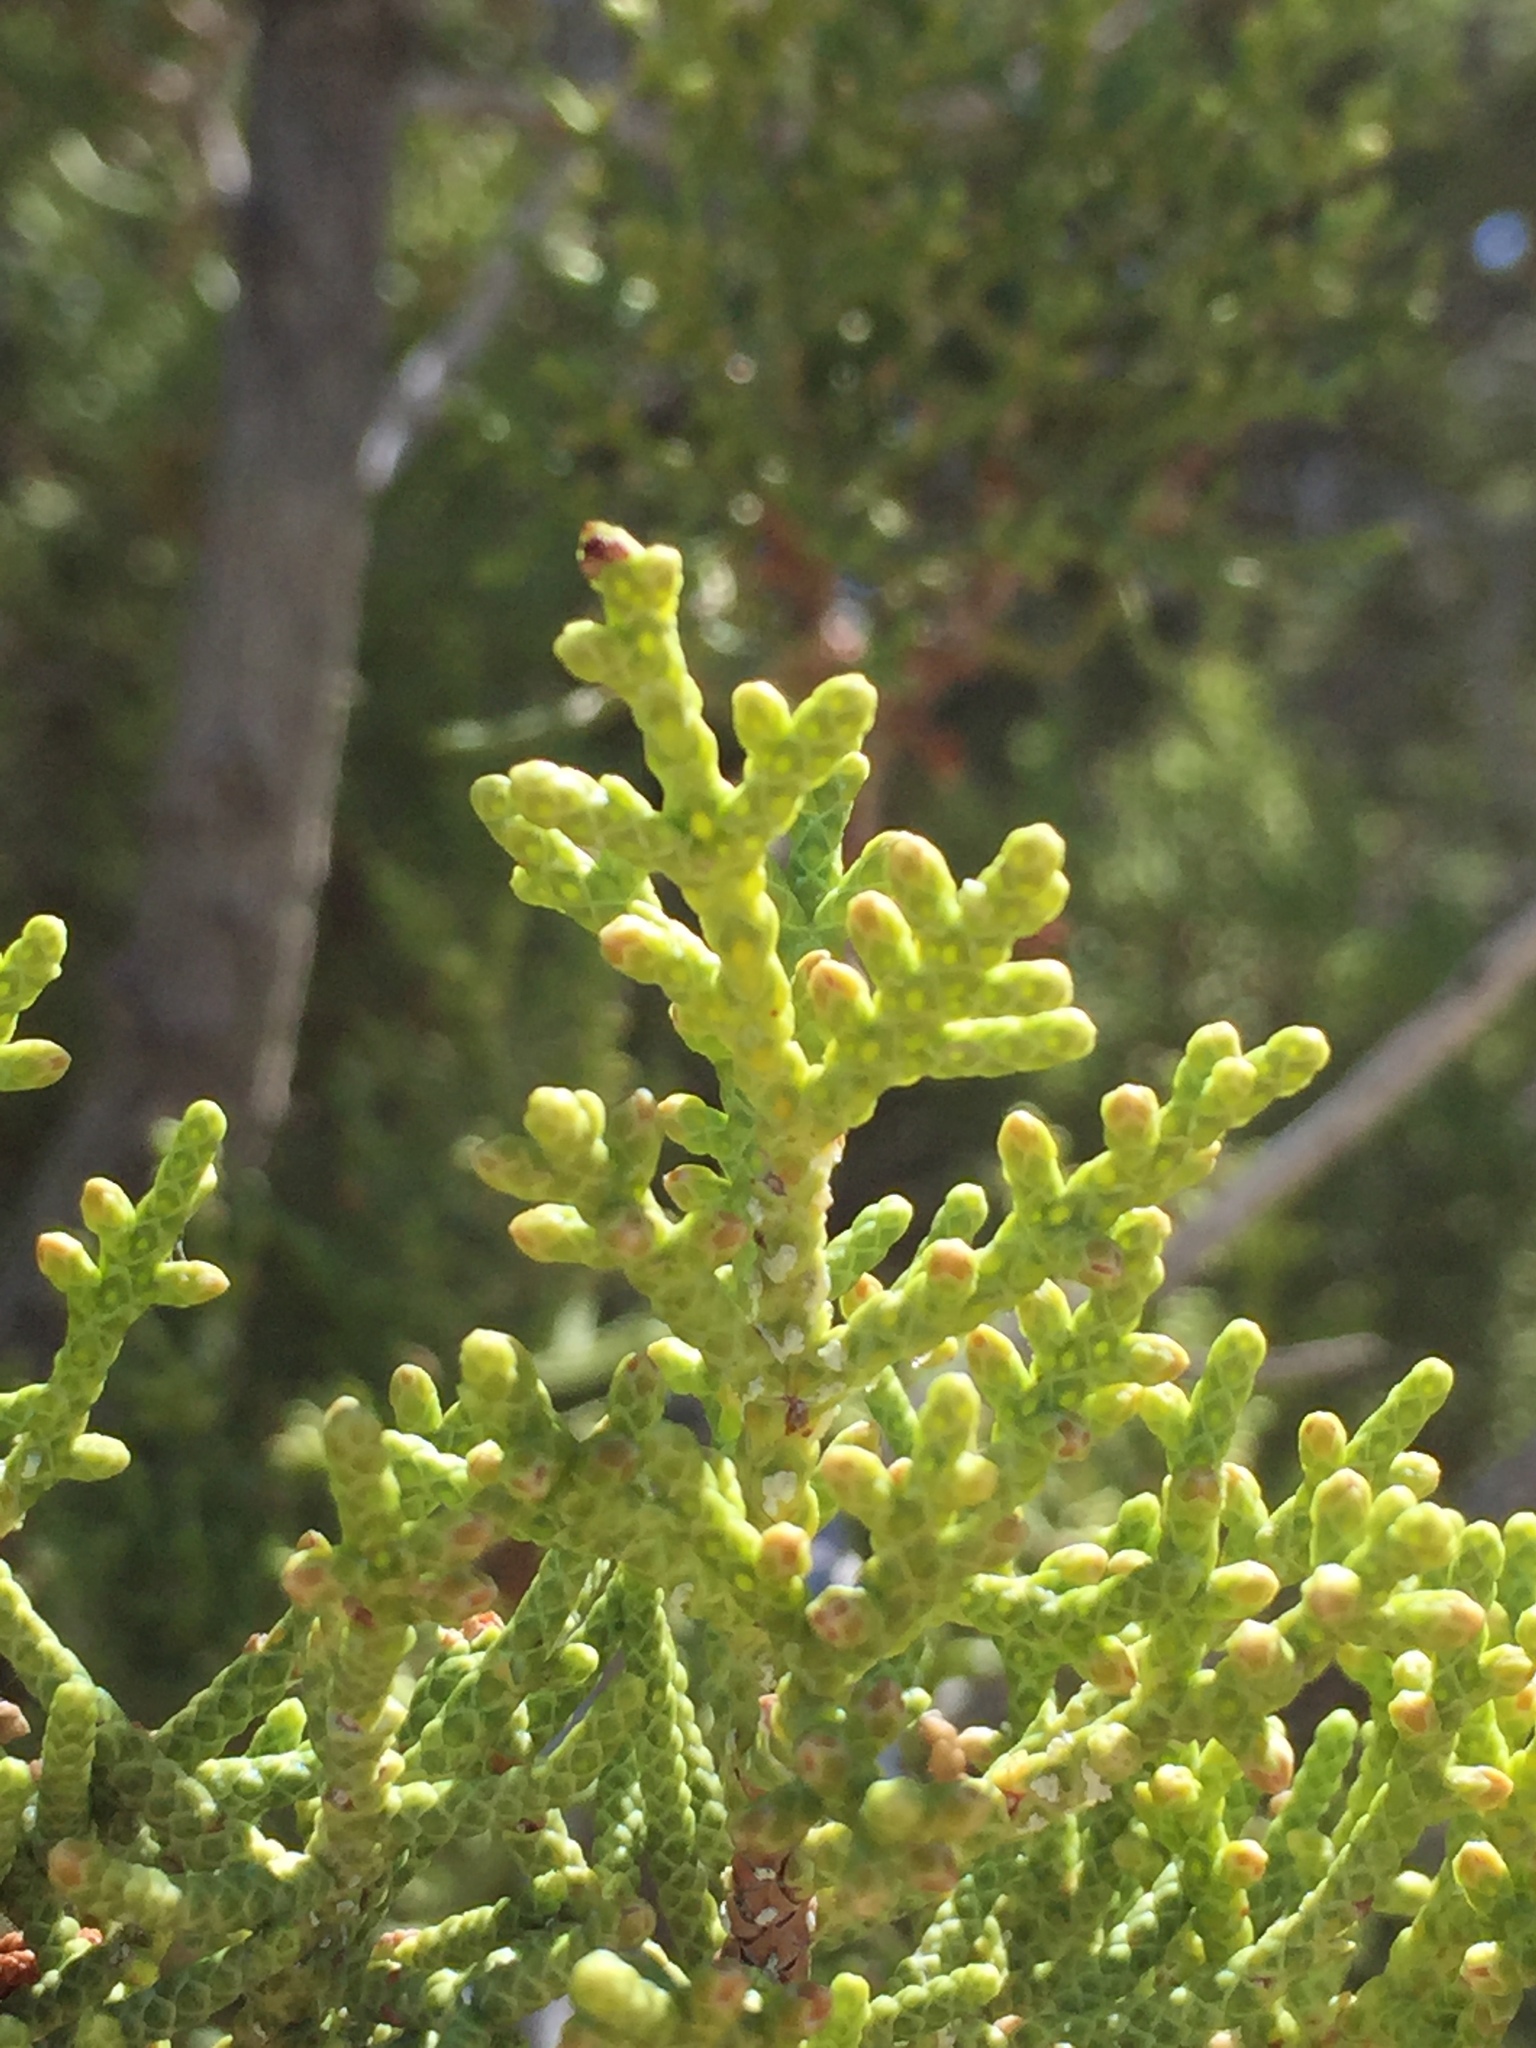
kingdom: Plantae
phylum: Tracheophyta
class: Pinopsida
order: Pinales
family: Cupressaceae
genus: Juniperus
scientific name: Juniperus californica
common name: California juniper
